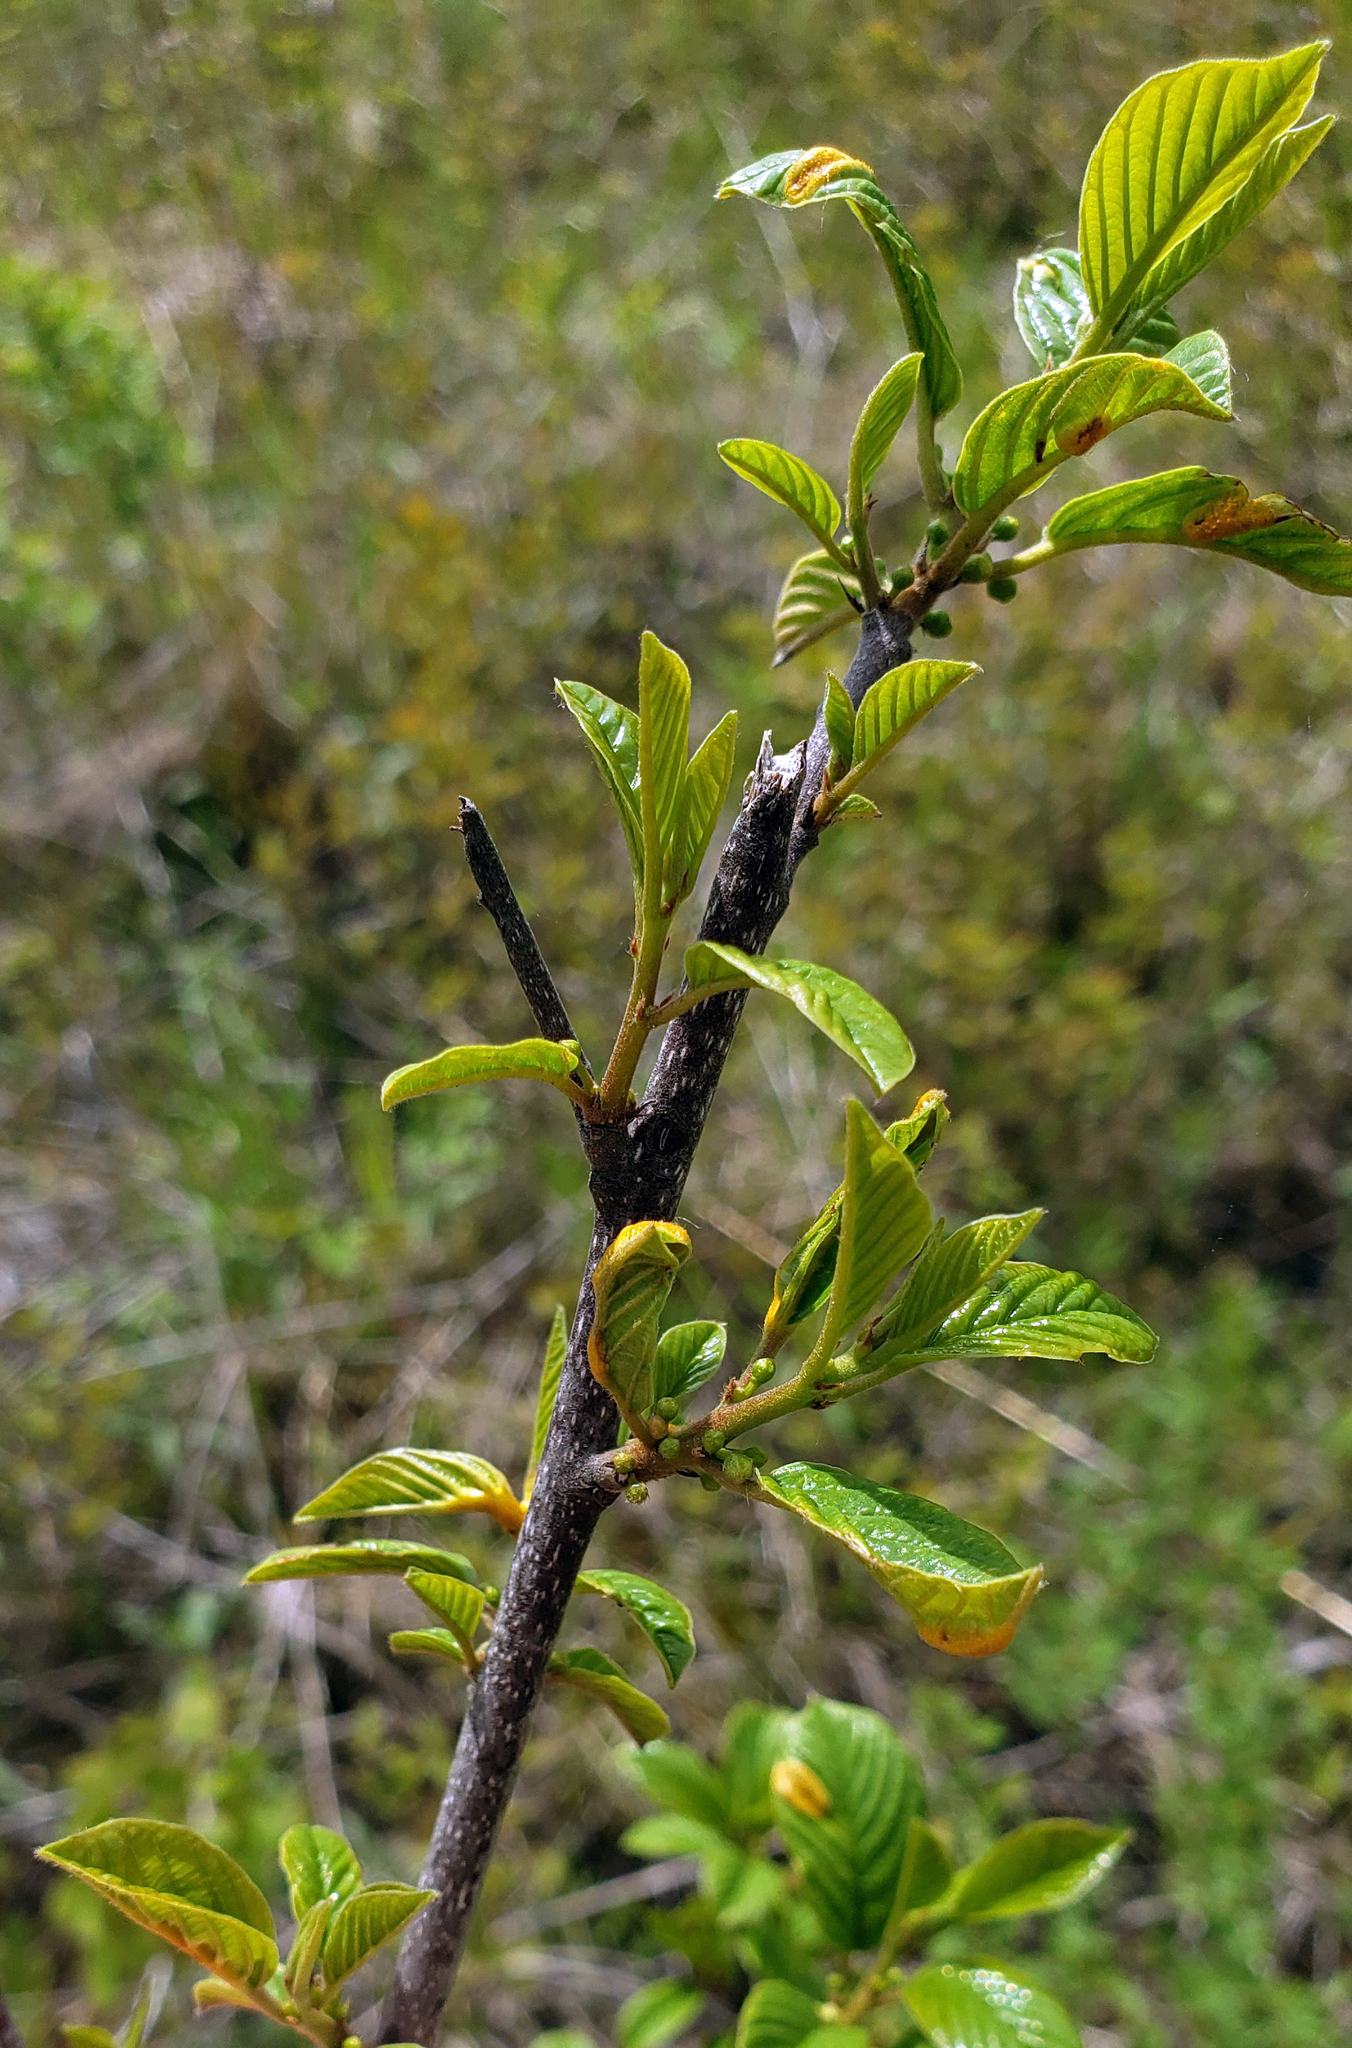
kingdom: Plantae
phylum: Tracheophyta
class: Magnoliopsida
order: Rosales
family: Rhamnaceae
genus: Frangula
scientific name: Frangula alnus
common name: Alder buckthorn
